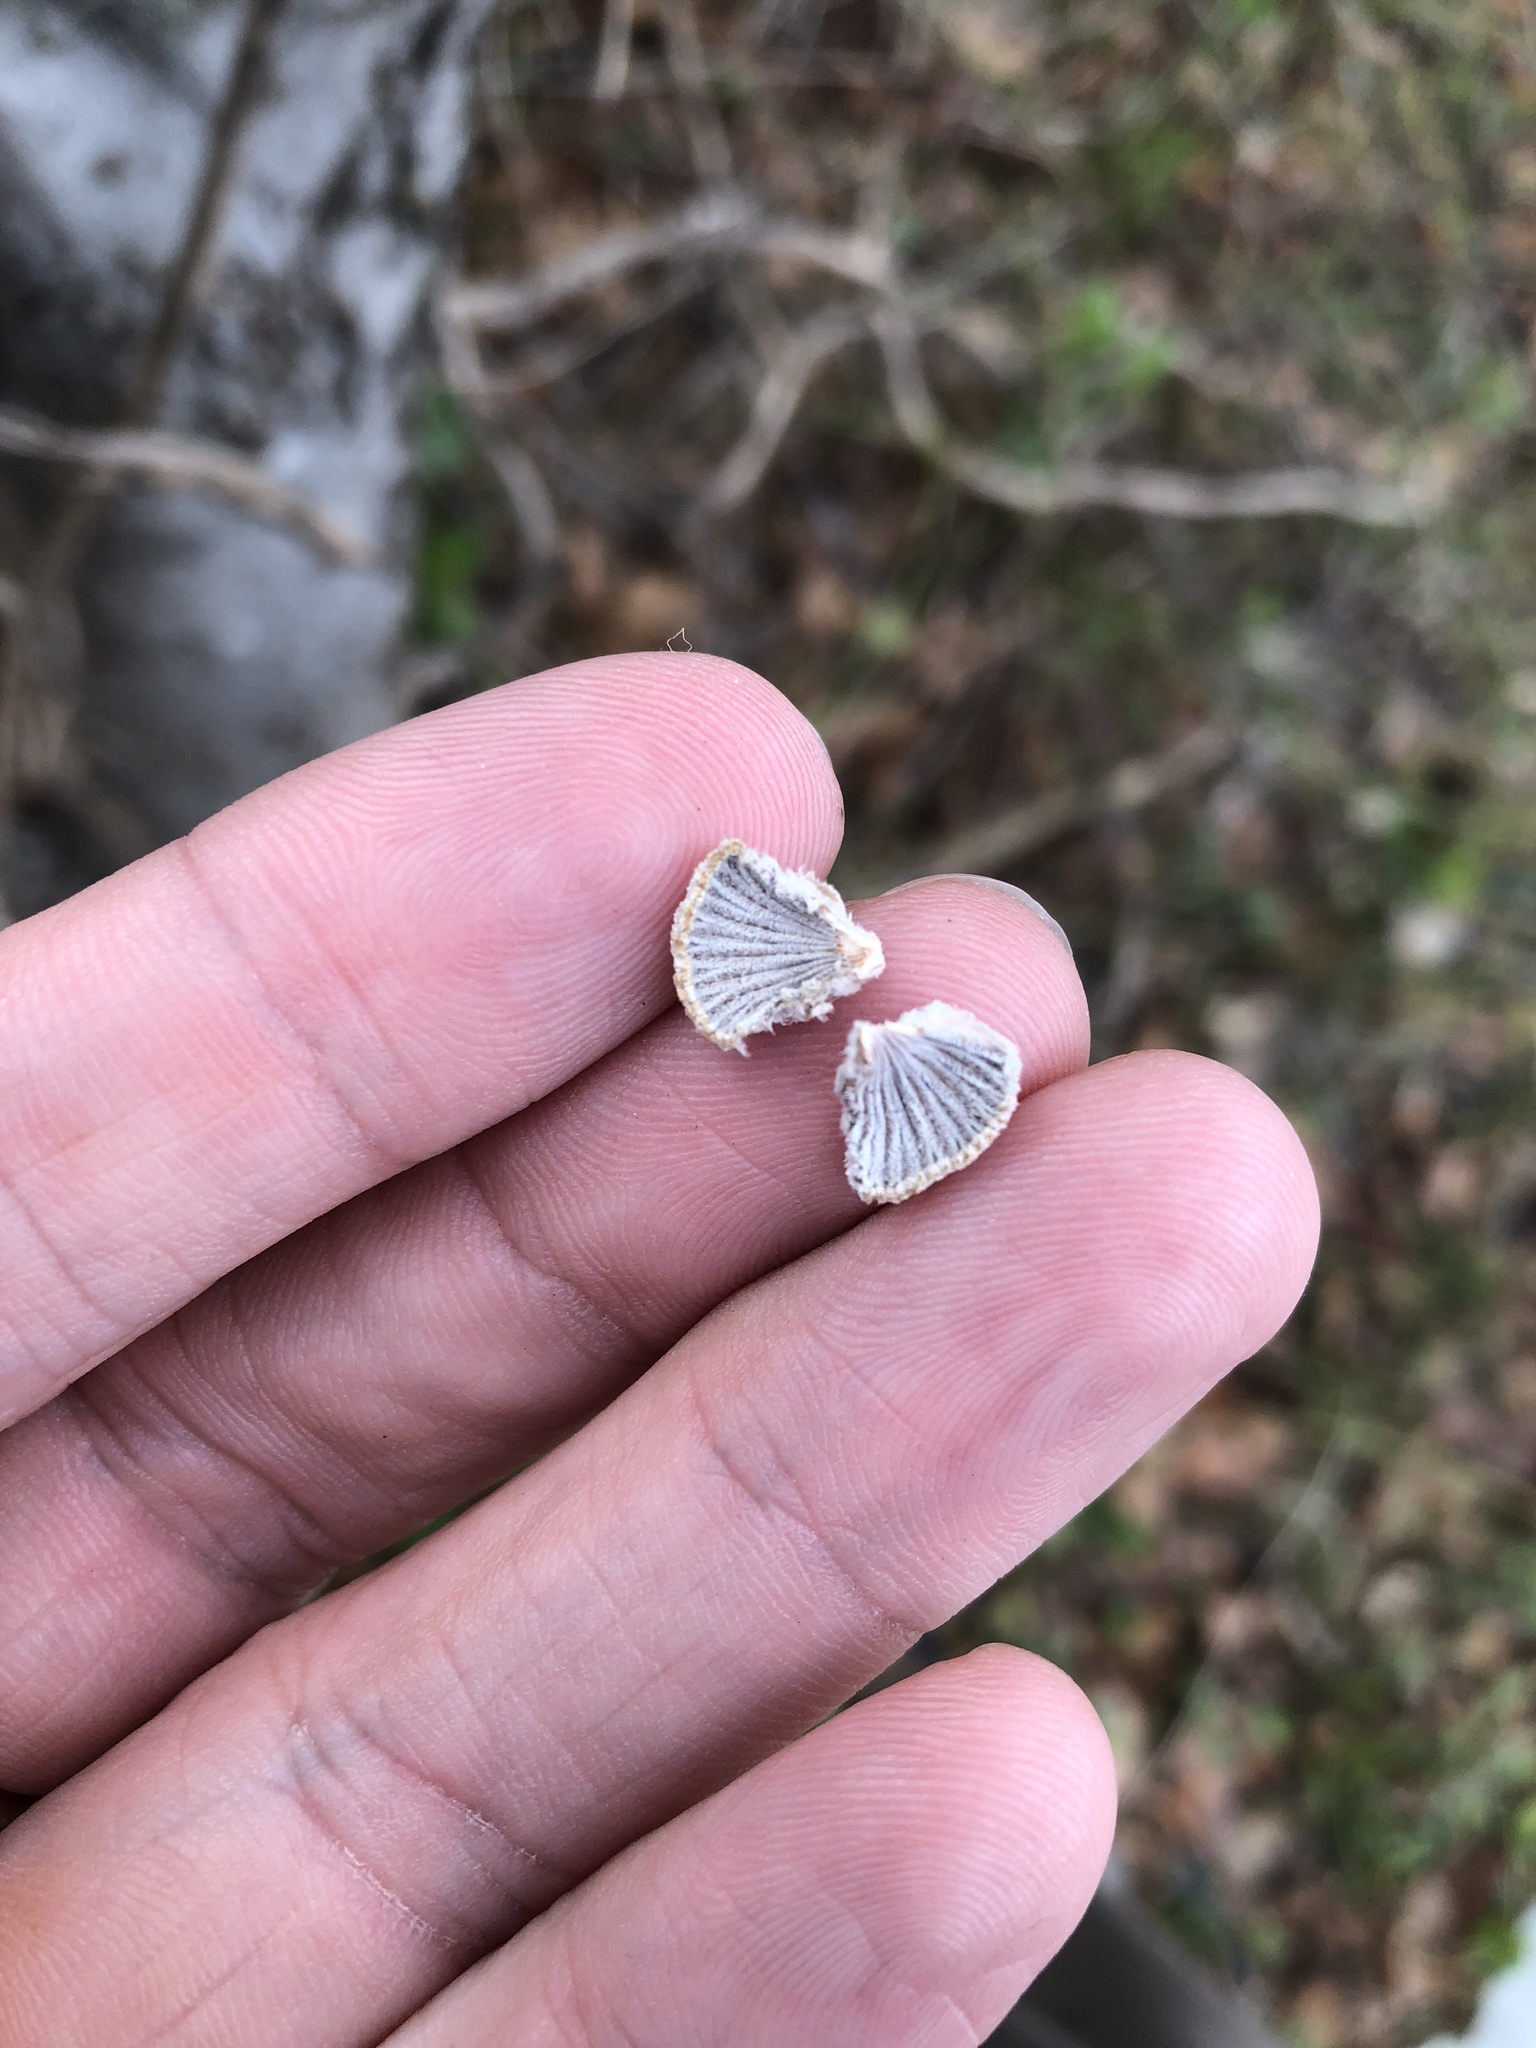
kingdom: Fungi
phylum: Basidiomycota
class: Agaricomycetes
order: Agaricales
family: Schizophyllaceae
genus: Schizophyllum
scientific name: Schizophyllum commune
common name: Common porecrust
